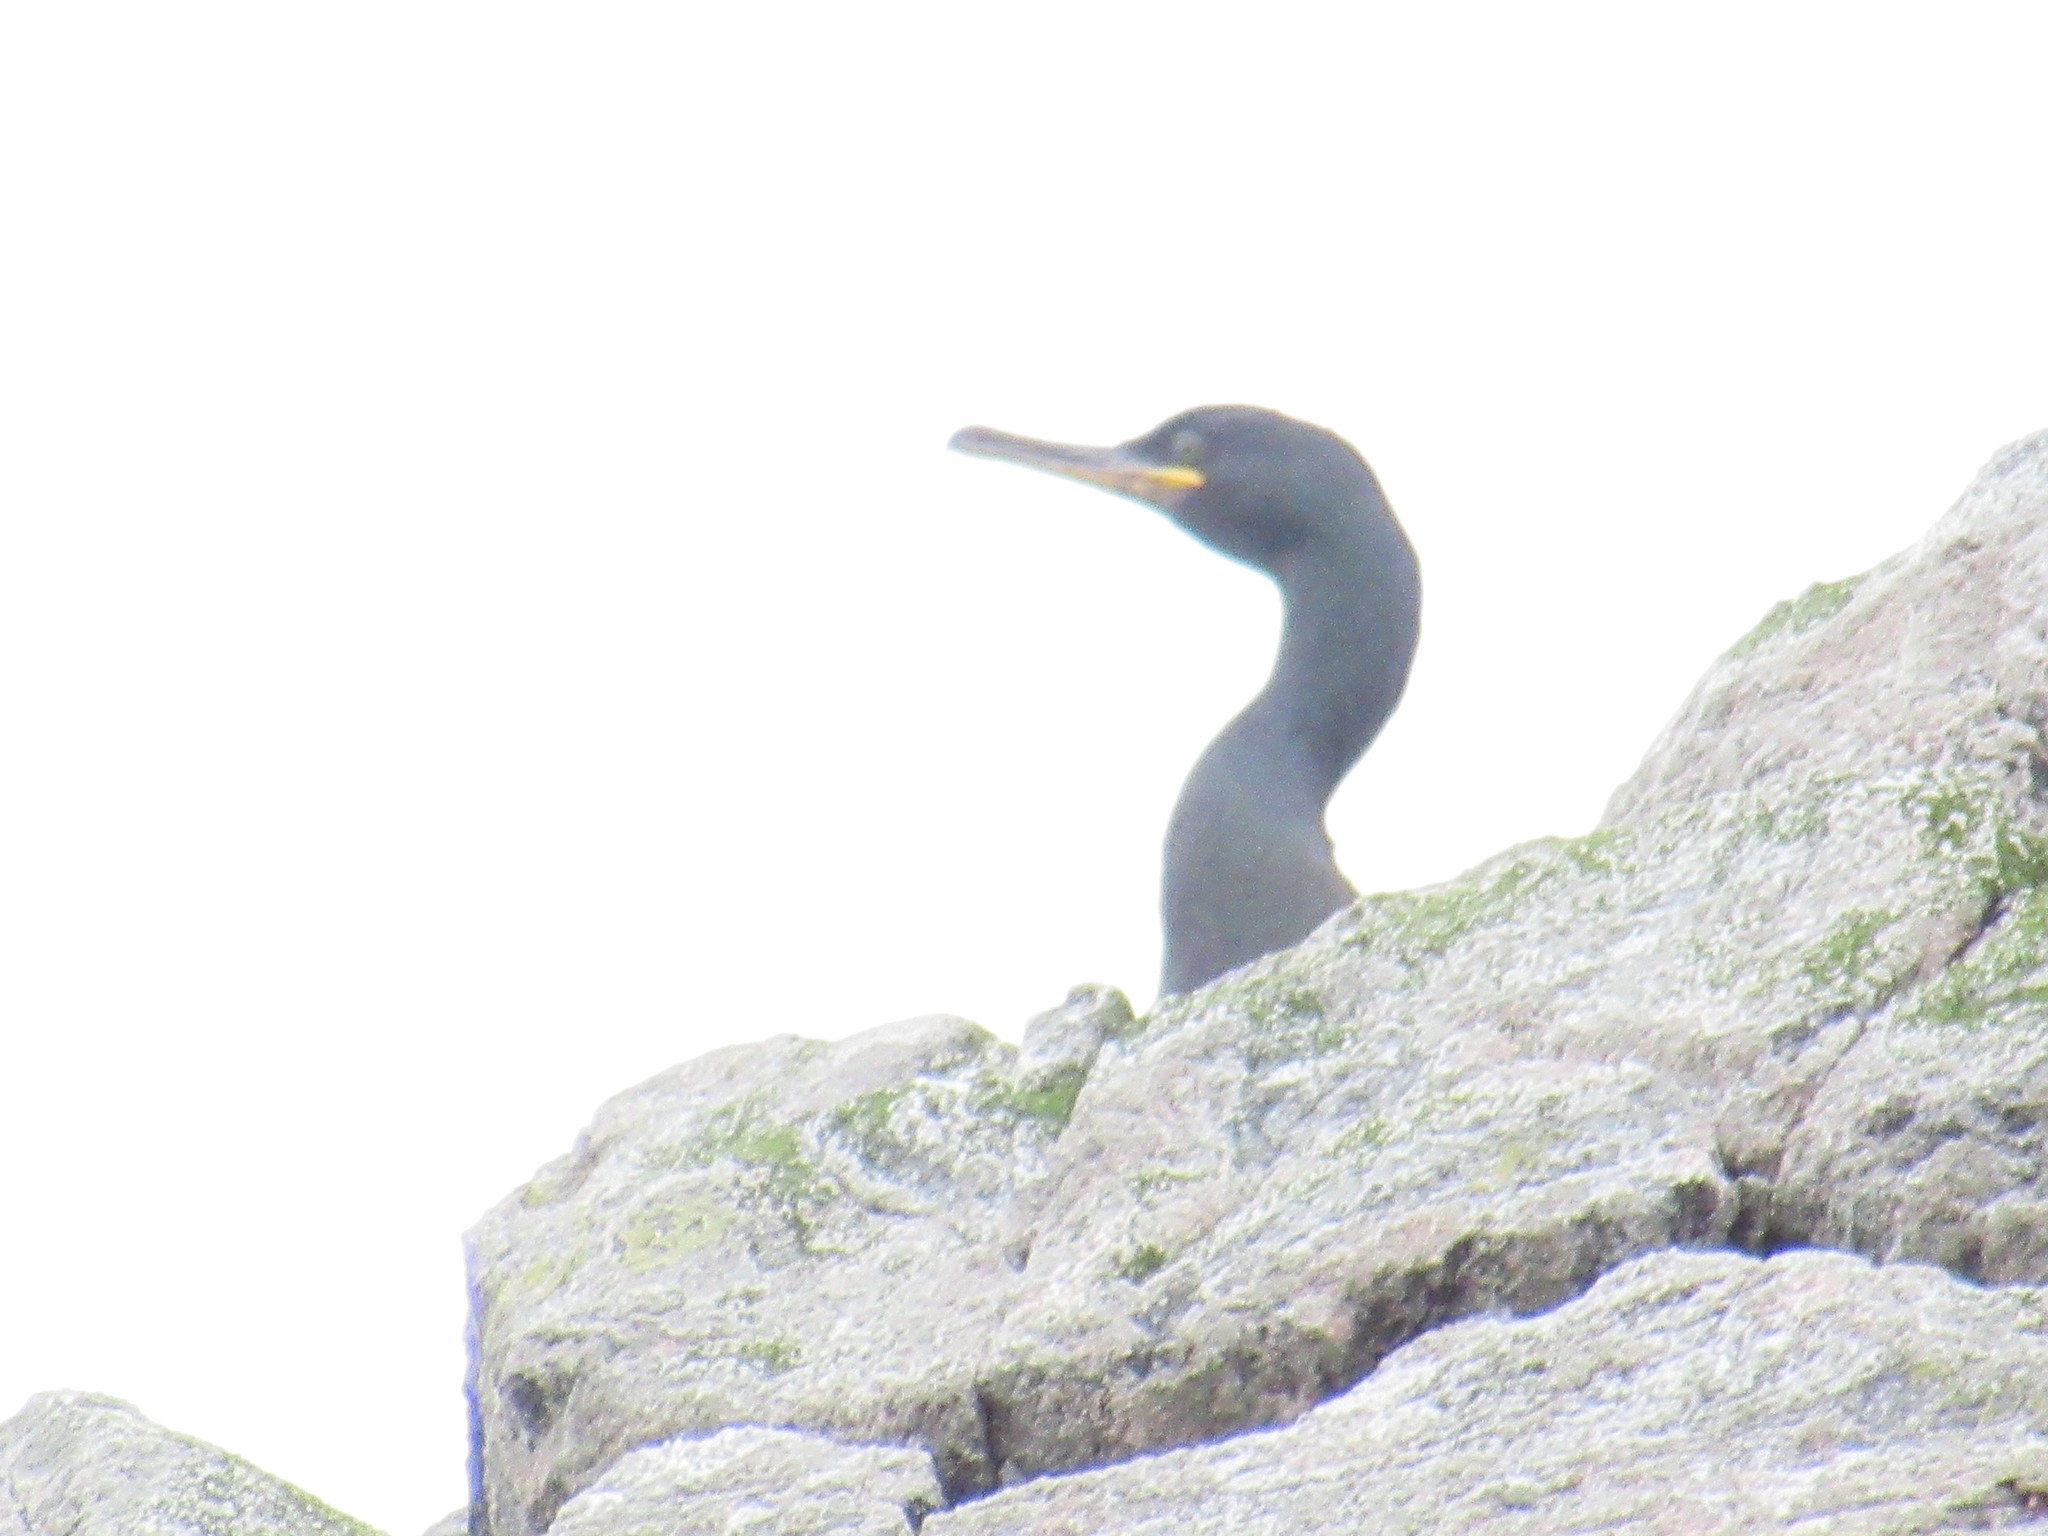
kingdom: Animalia
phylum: Chordata
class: Aves
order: Suliformes
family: Phalacrocoracidae
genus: Phalacrocorax
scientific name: Phalacrocorax aristotelis
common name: European shag
